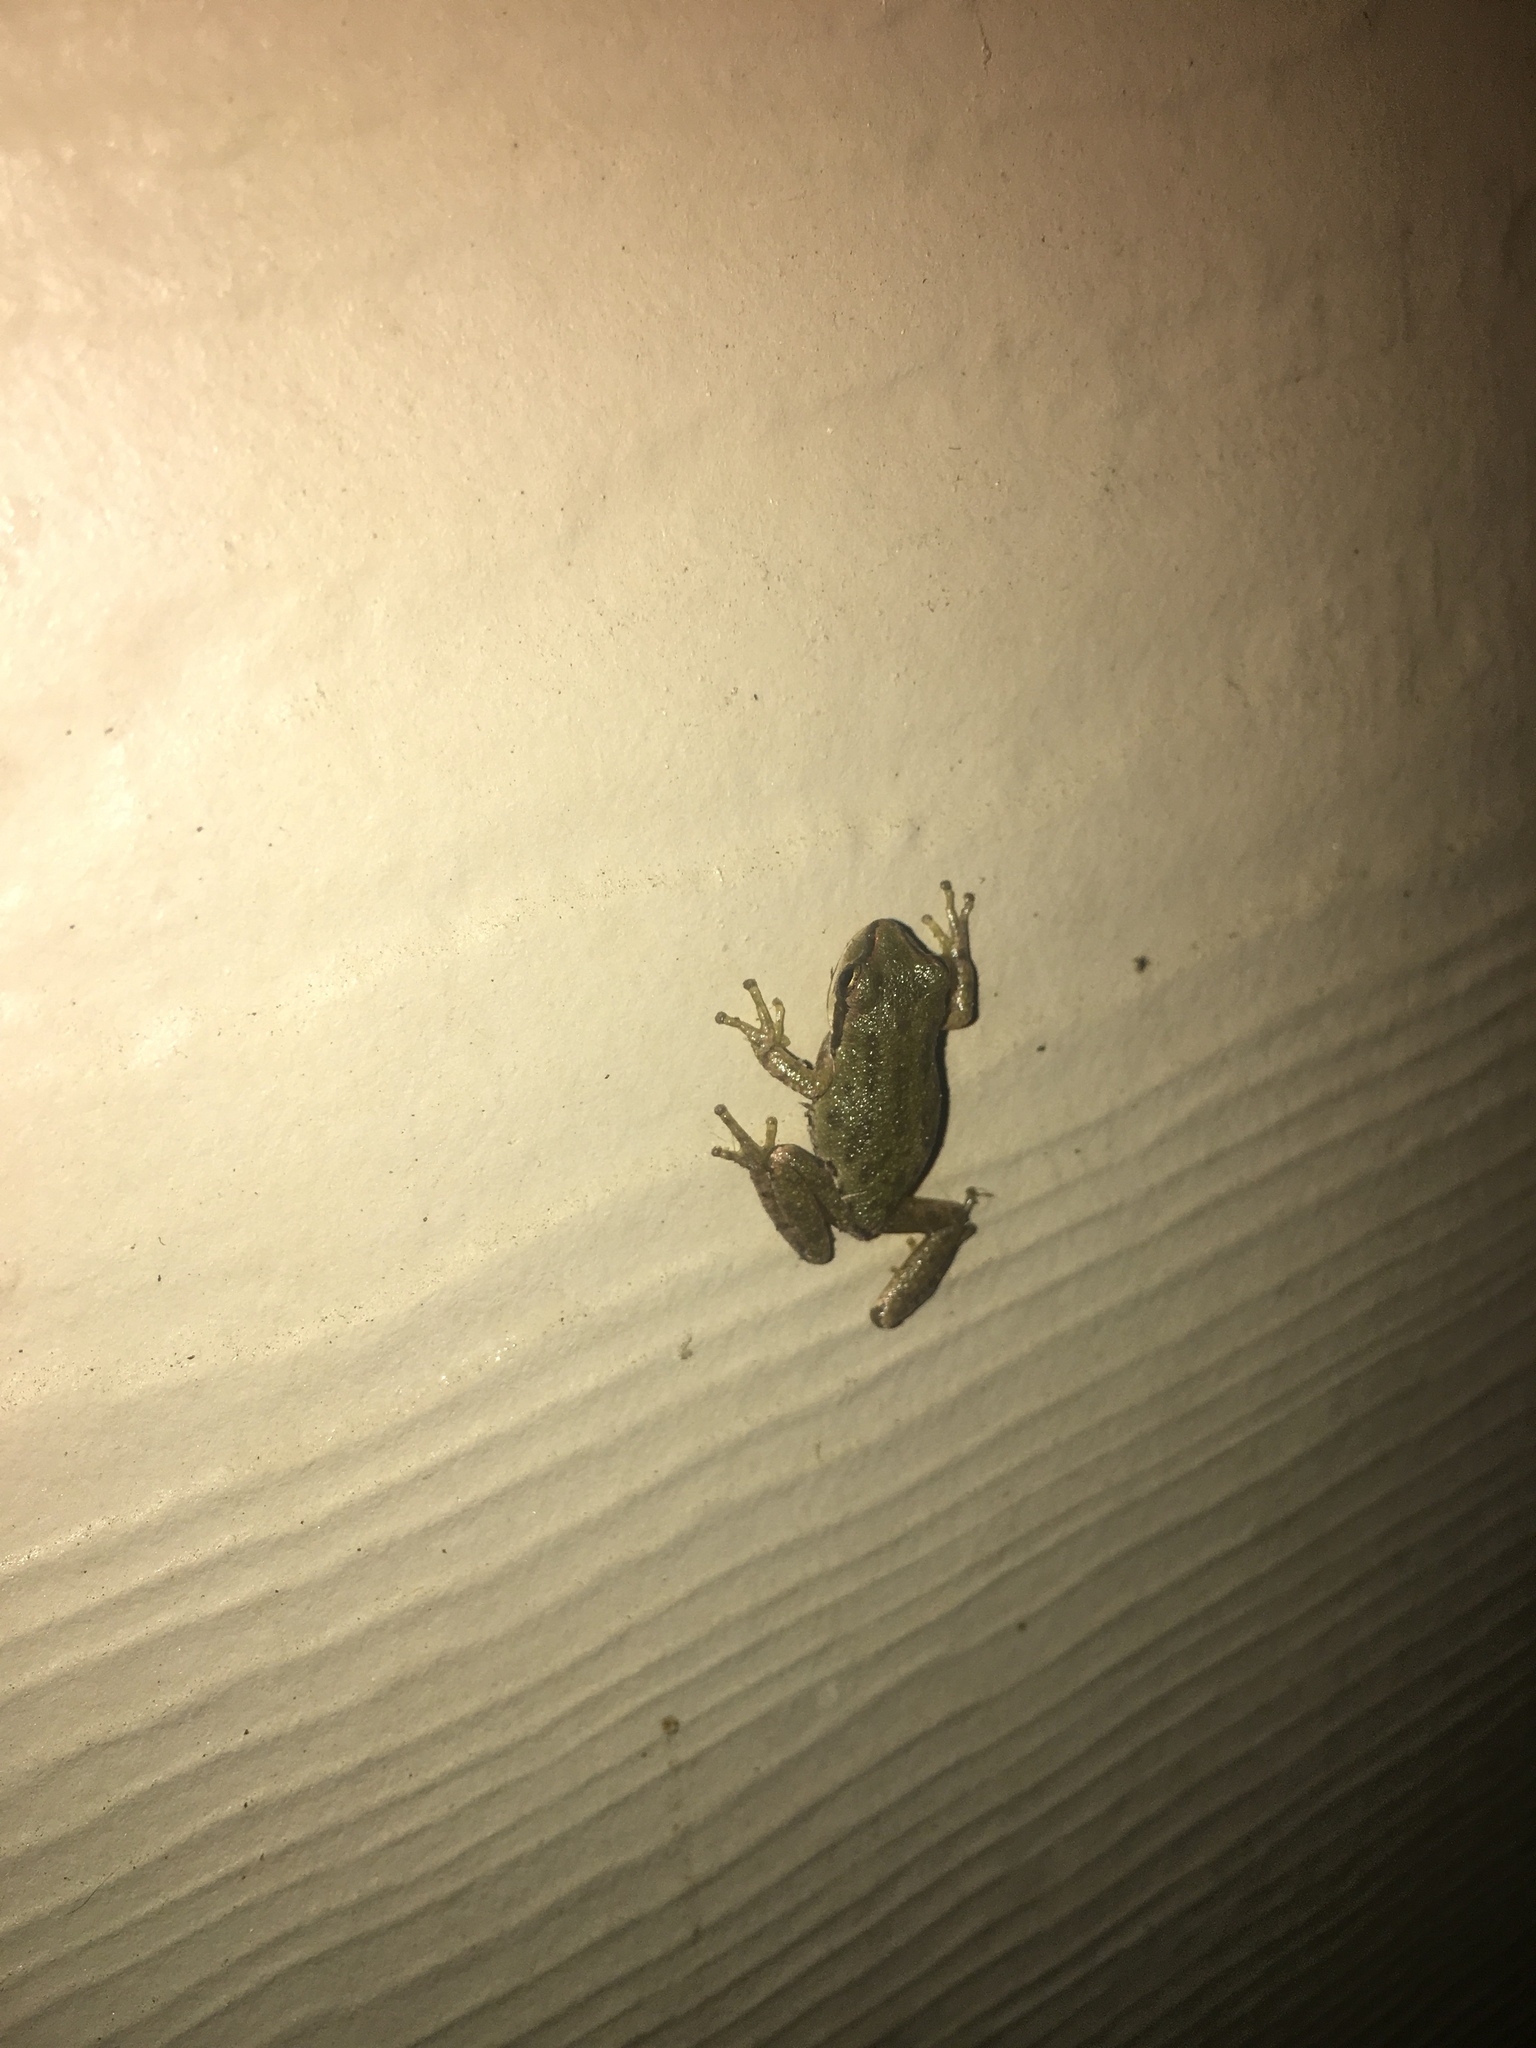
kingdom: Animalia
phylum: Chordata
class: Amphibia
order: Anura
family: Hylidae
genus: Pseudacris
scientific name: Pseudacris regilla
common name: Pacific chorus frog
